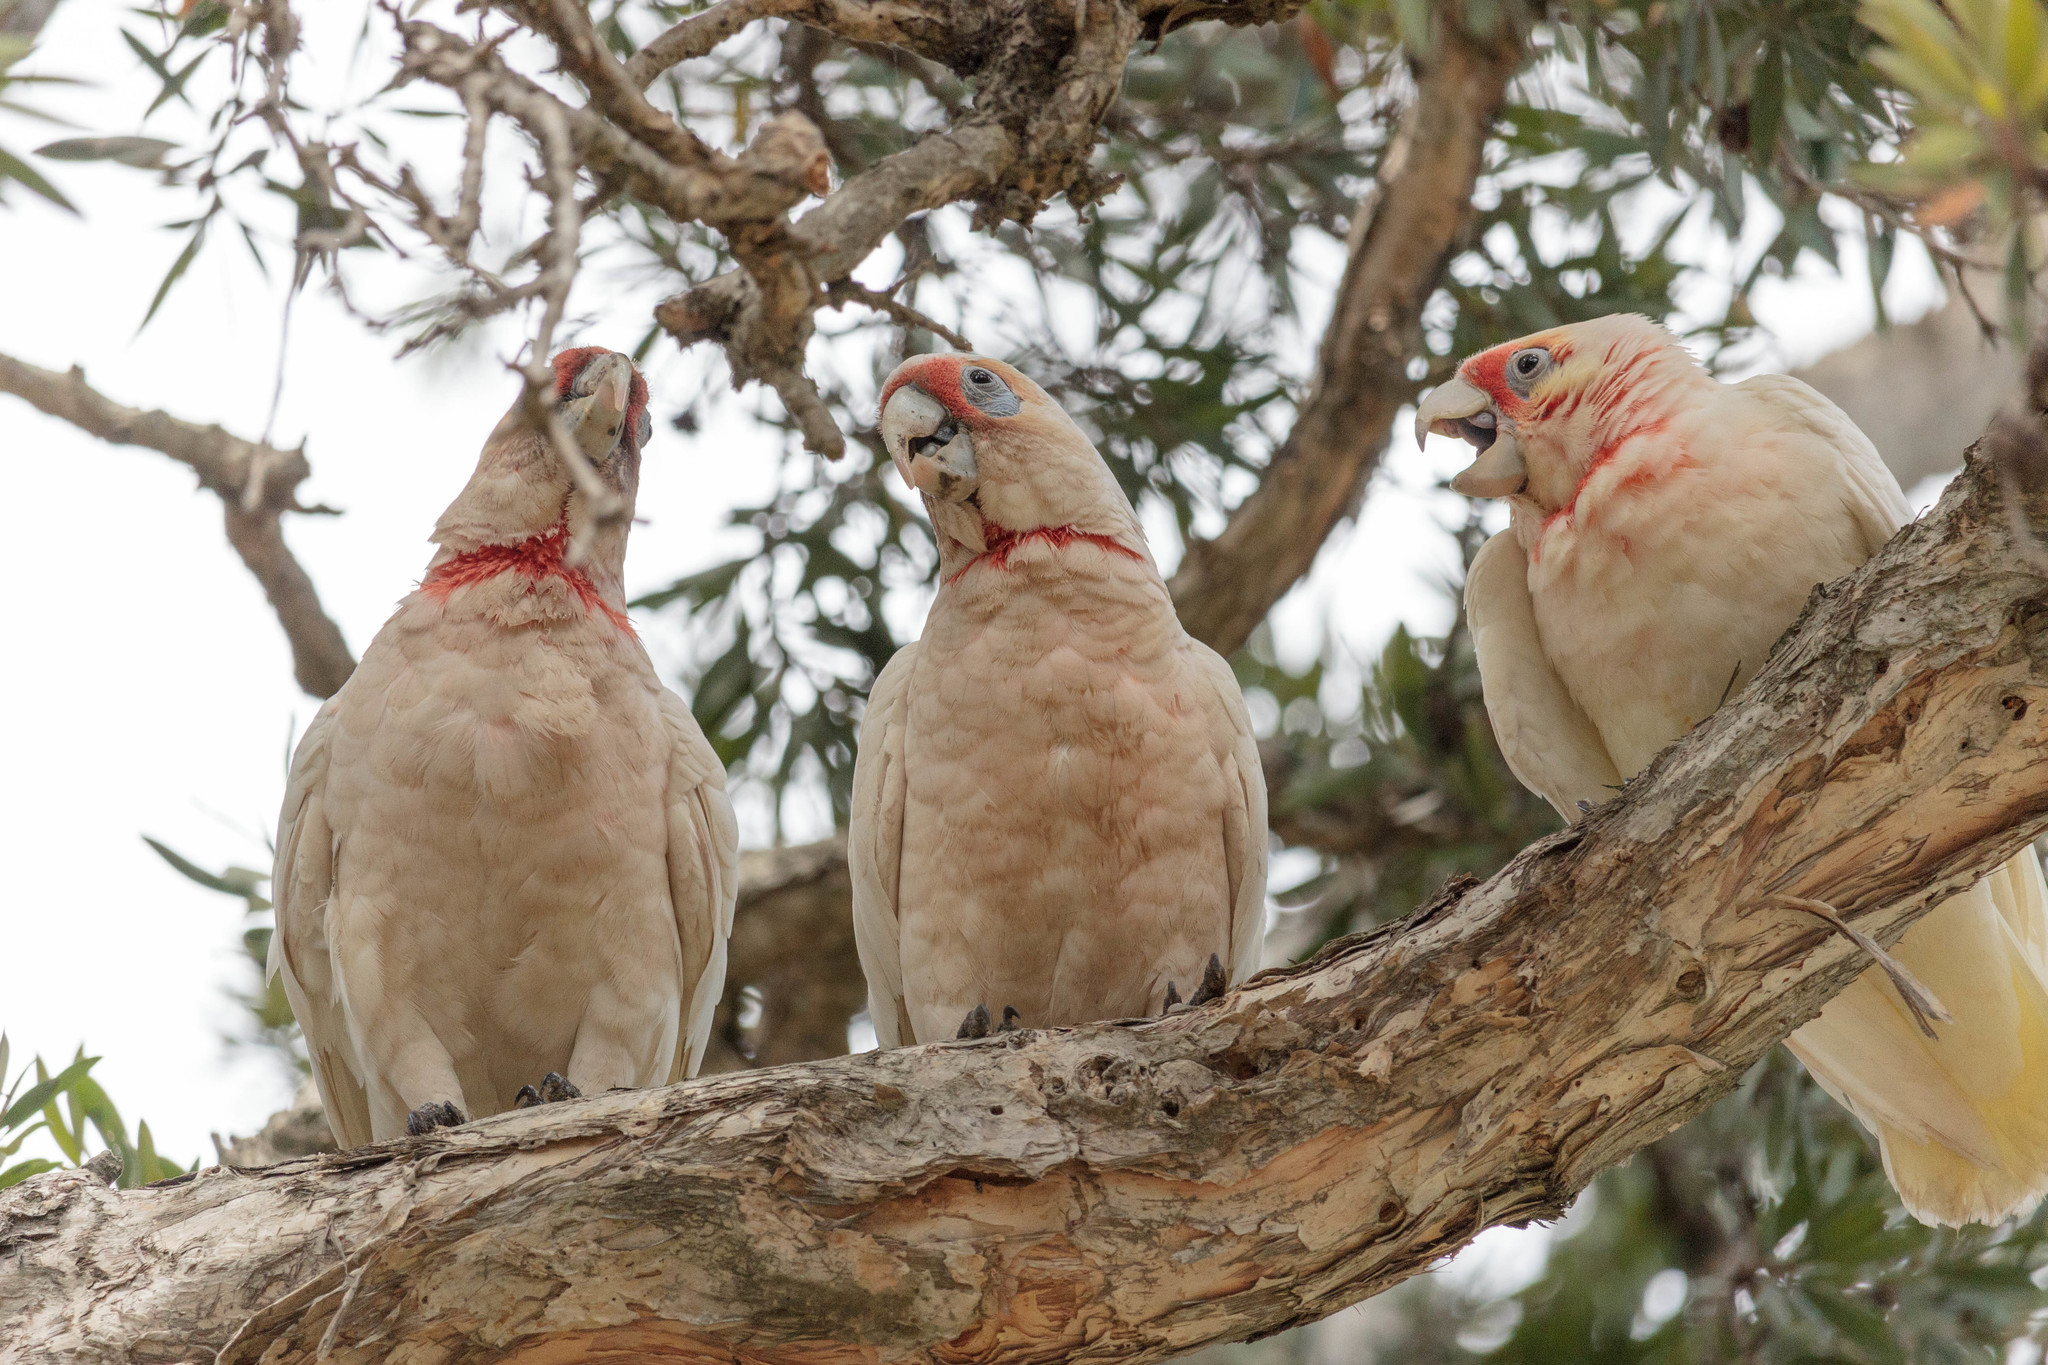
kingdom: Animalia
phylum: Chordata
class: Aves
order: Psittaciformes
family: Psittacidae
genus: Cacatua
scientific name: Cacatua tenuirostris
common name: Long-billed corella
